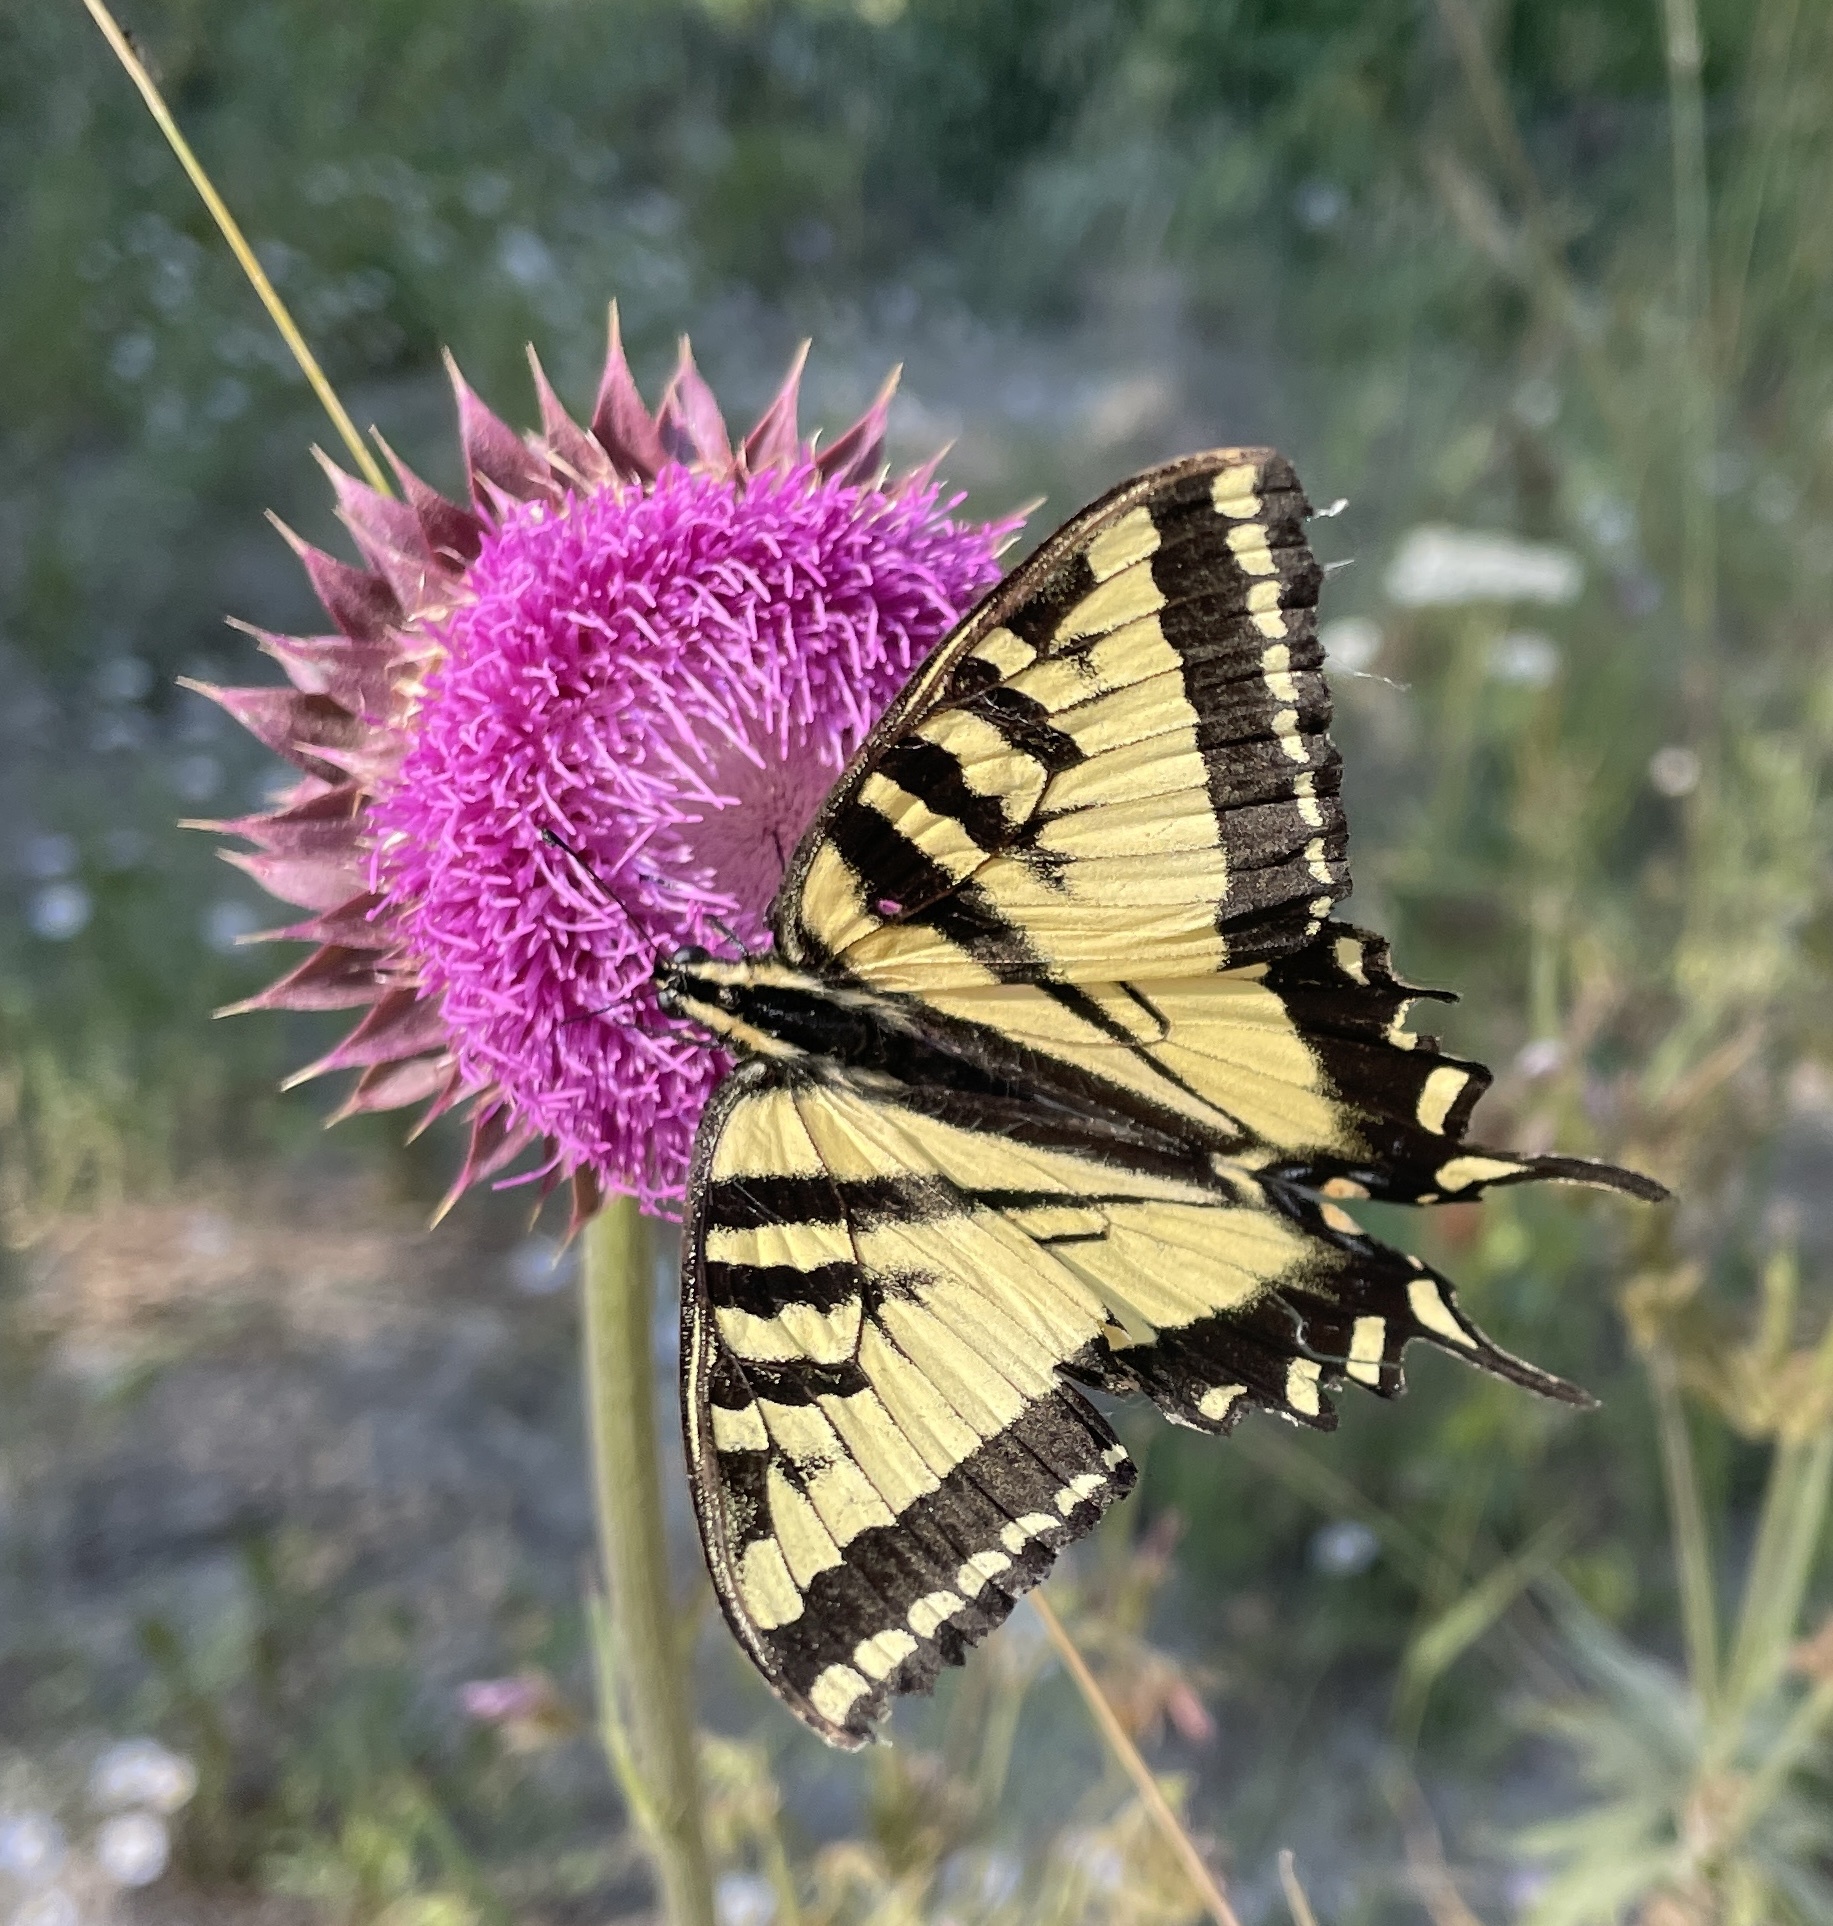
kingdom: Animalia
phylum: Arthropoda
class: Insecta
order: Lepidoptera
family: Papilionidae
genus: Papilio
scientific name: Papilio rutulus
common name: Western tiger swallowtail
